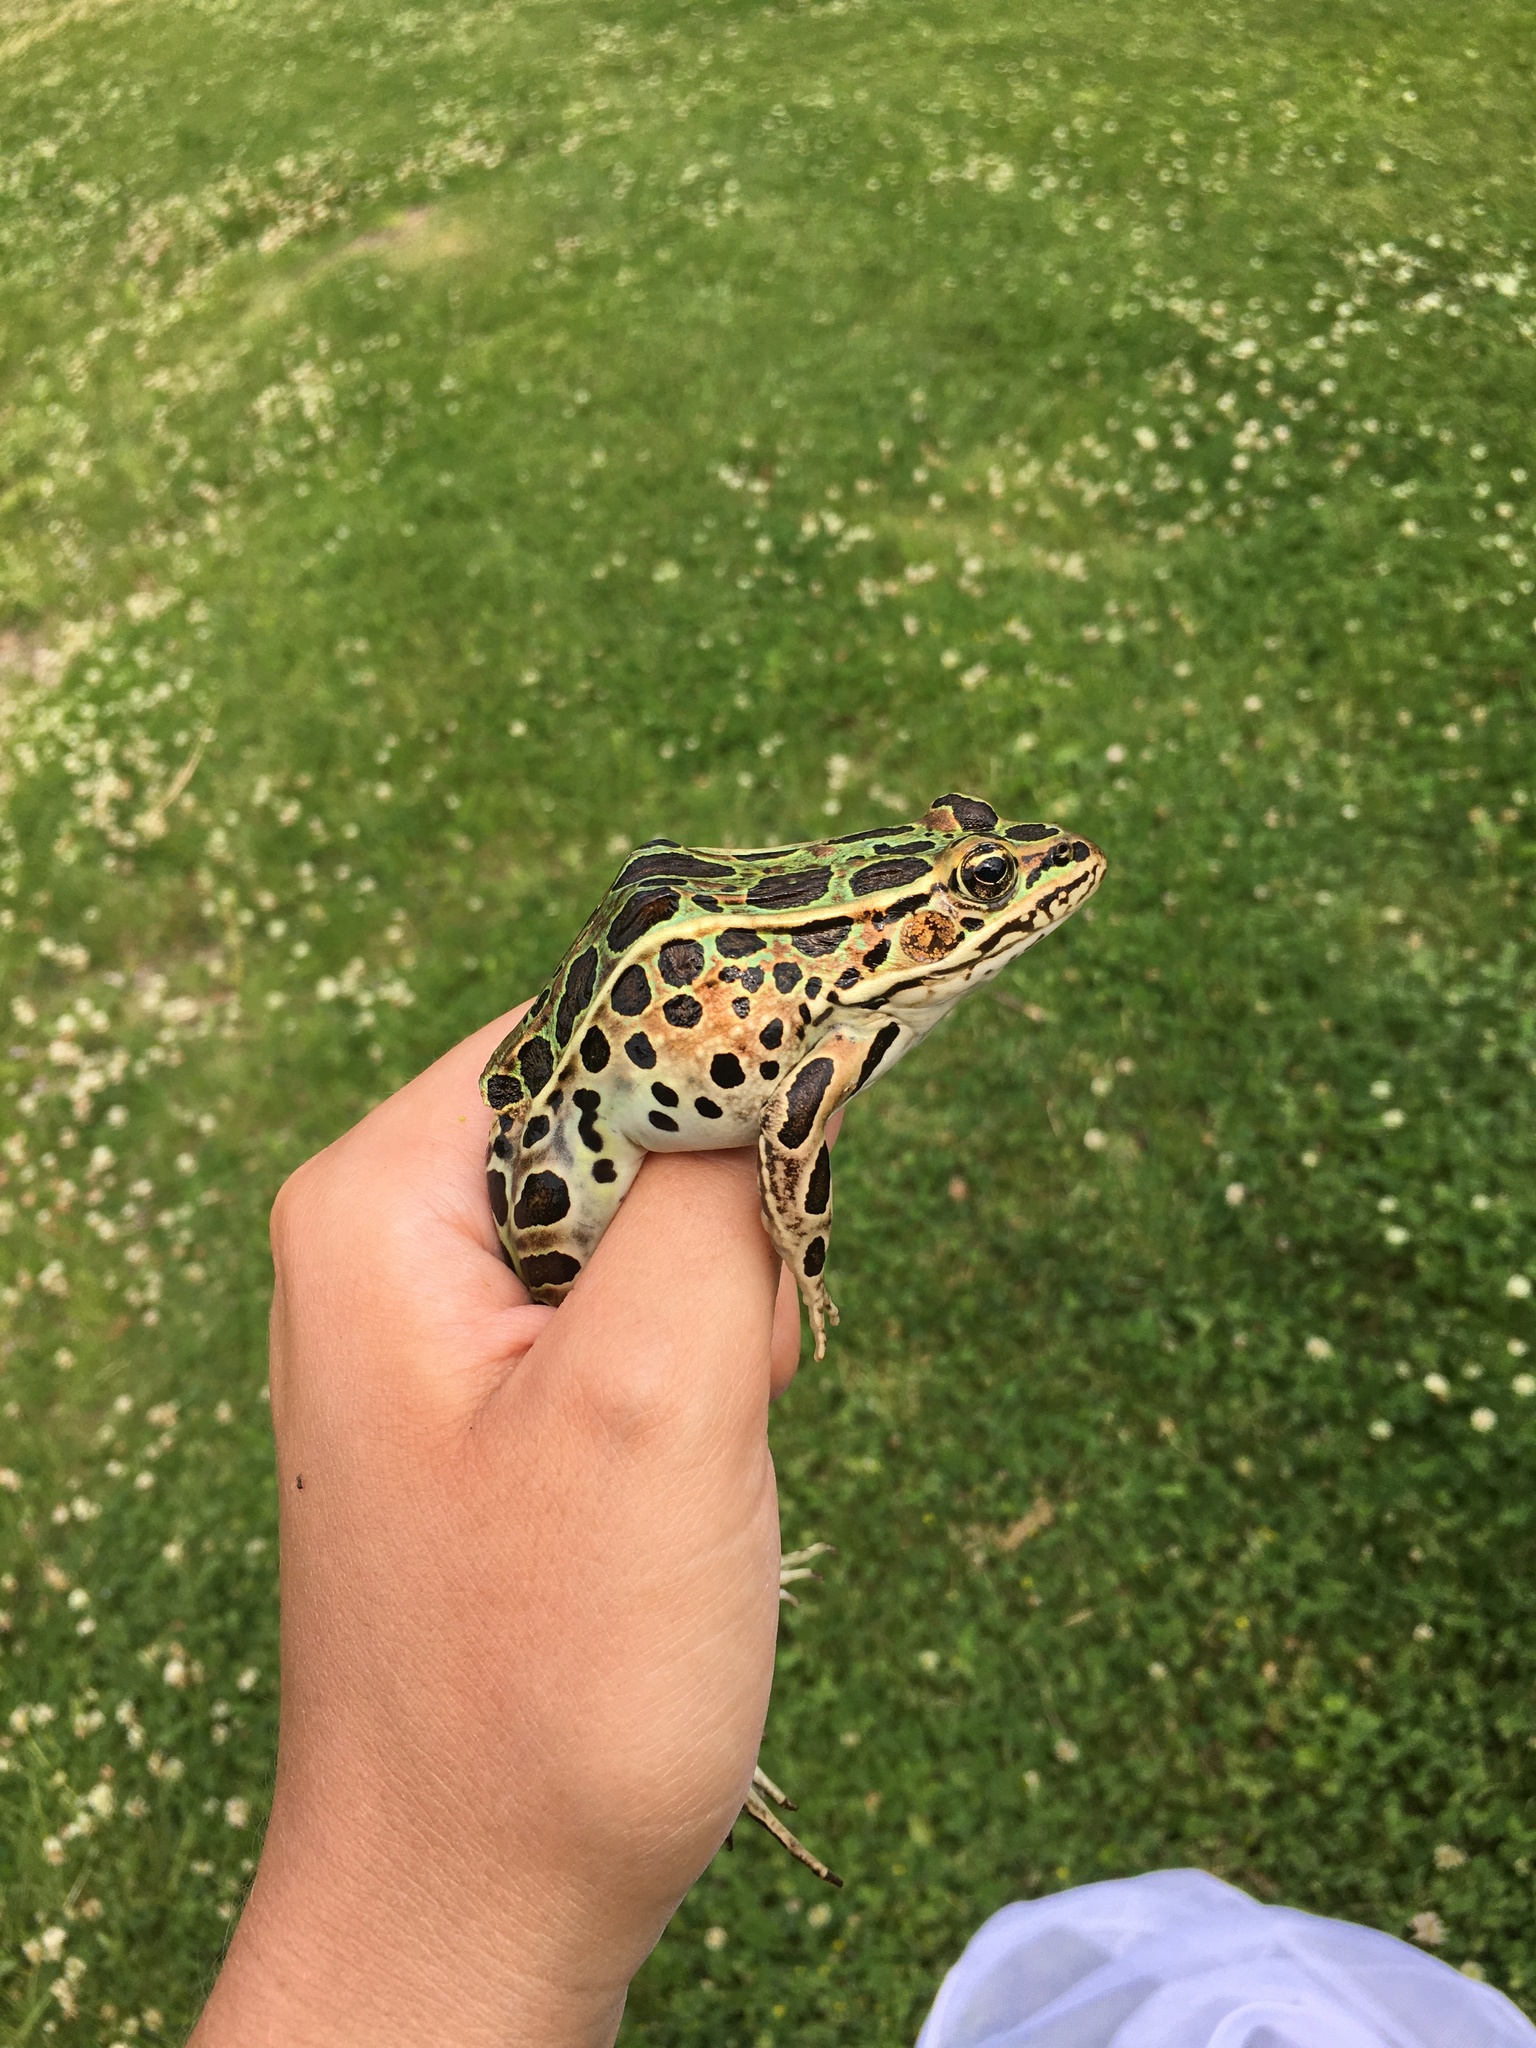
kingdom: Animalia
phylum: Chordata
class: Amphibia
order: Anura
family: Ranidae
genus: Lithobates
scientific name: Lithobates pipiens
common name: Northern leopard frog
